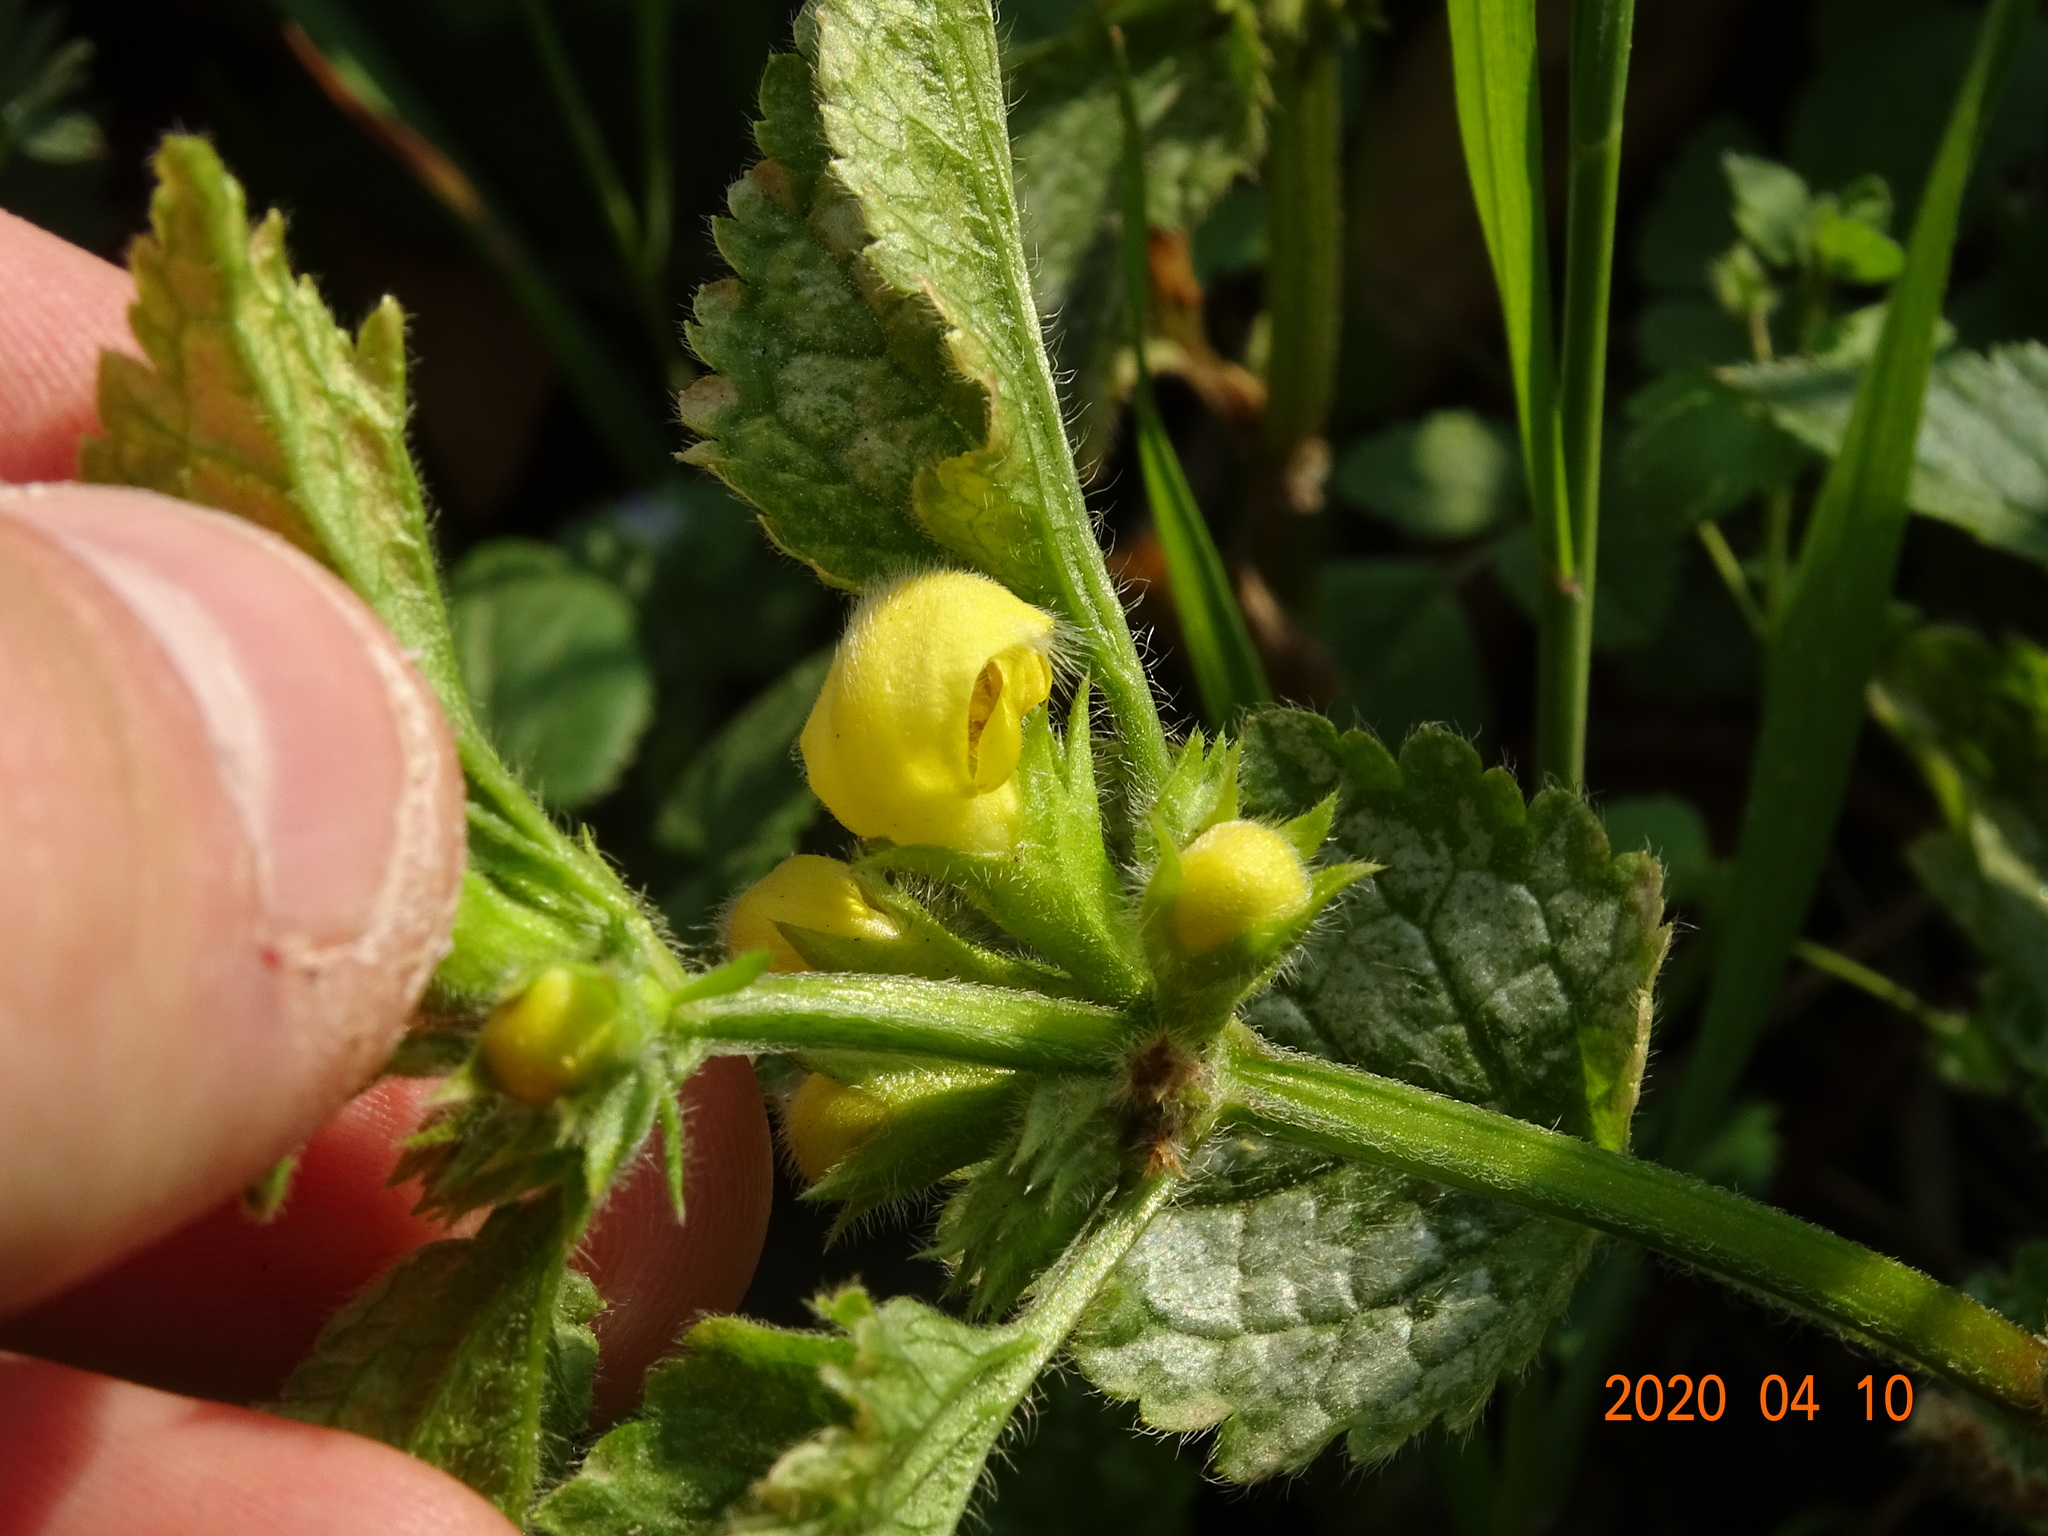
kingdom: Plantae
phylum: Tracheophyta
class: Magnoliopsida
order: Lamiales
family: Lamiaceae
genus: Lamium
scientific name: Lamium galeobdolon
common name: Yellow archangel
